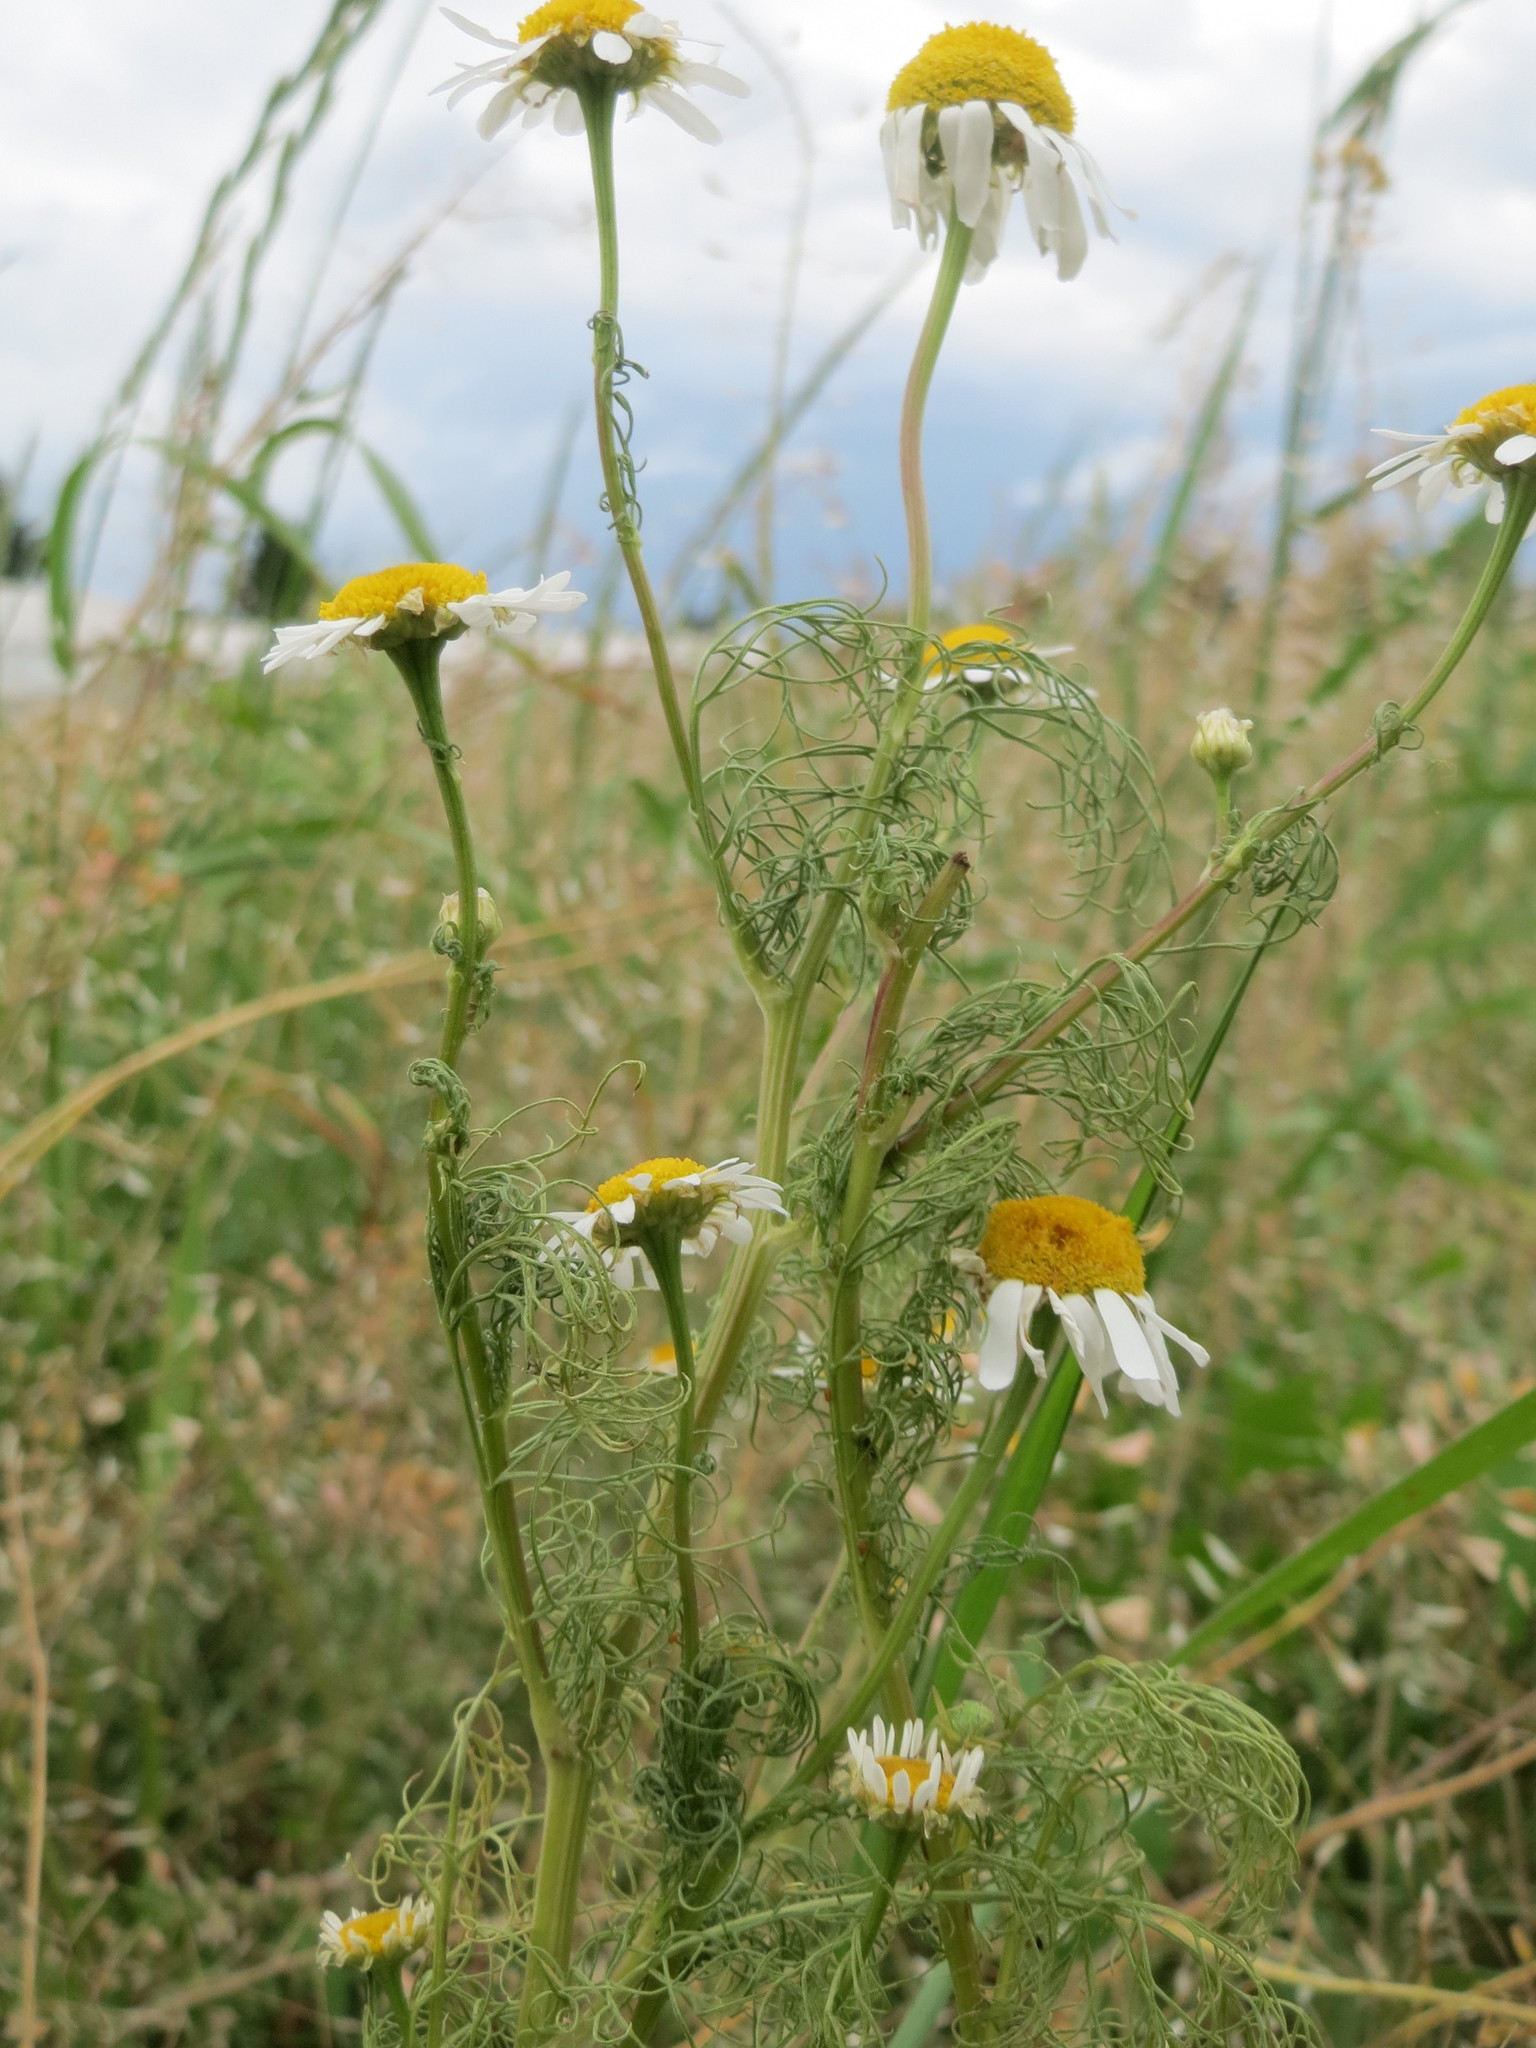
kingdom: Plantae
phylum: Tracheophyta
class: Magnoliopsida
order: Asterales
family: Asteraceae
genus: Tripleurospermum
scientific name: Tripleurospermum inodorum
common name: Scentless mayweed
